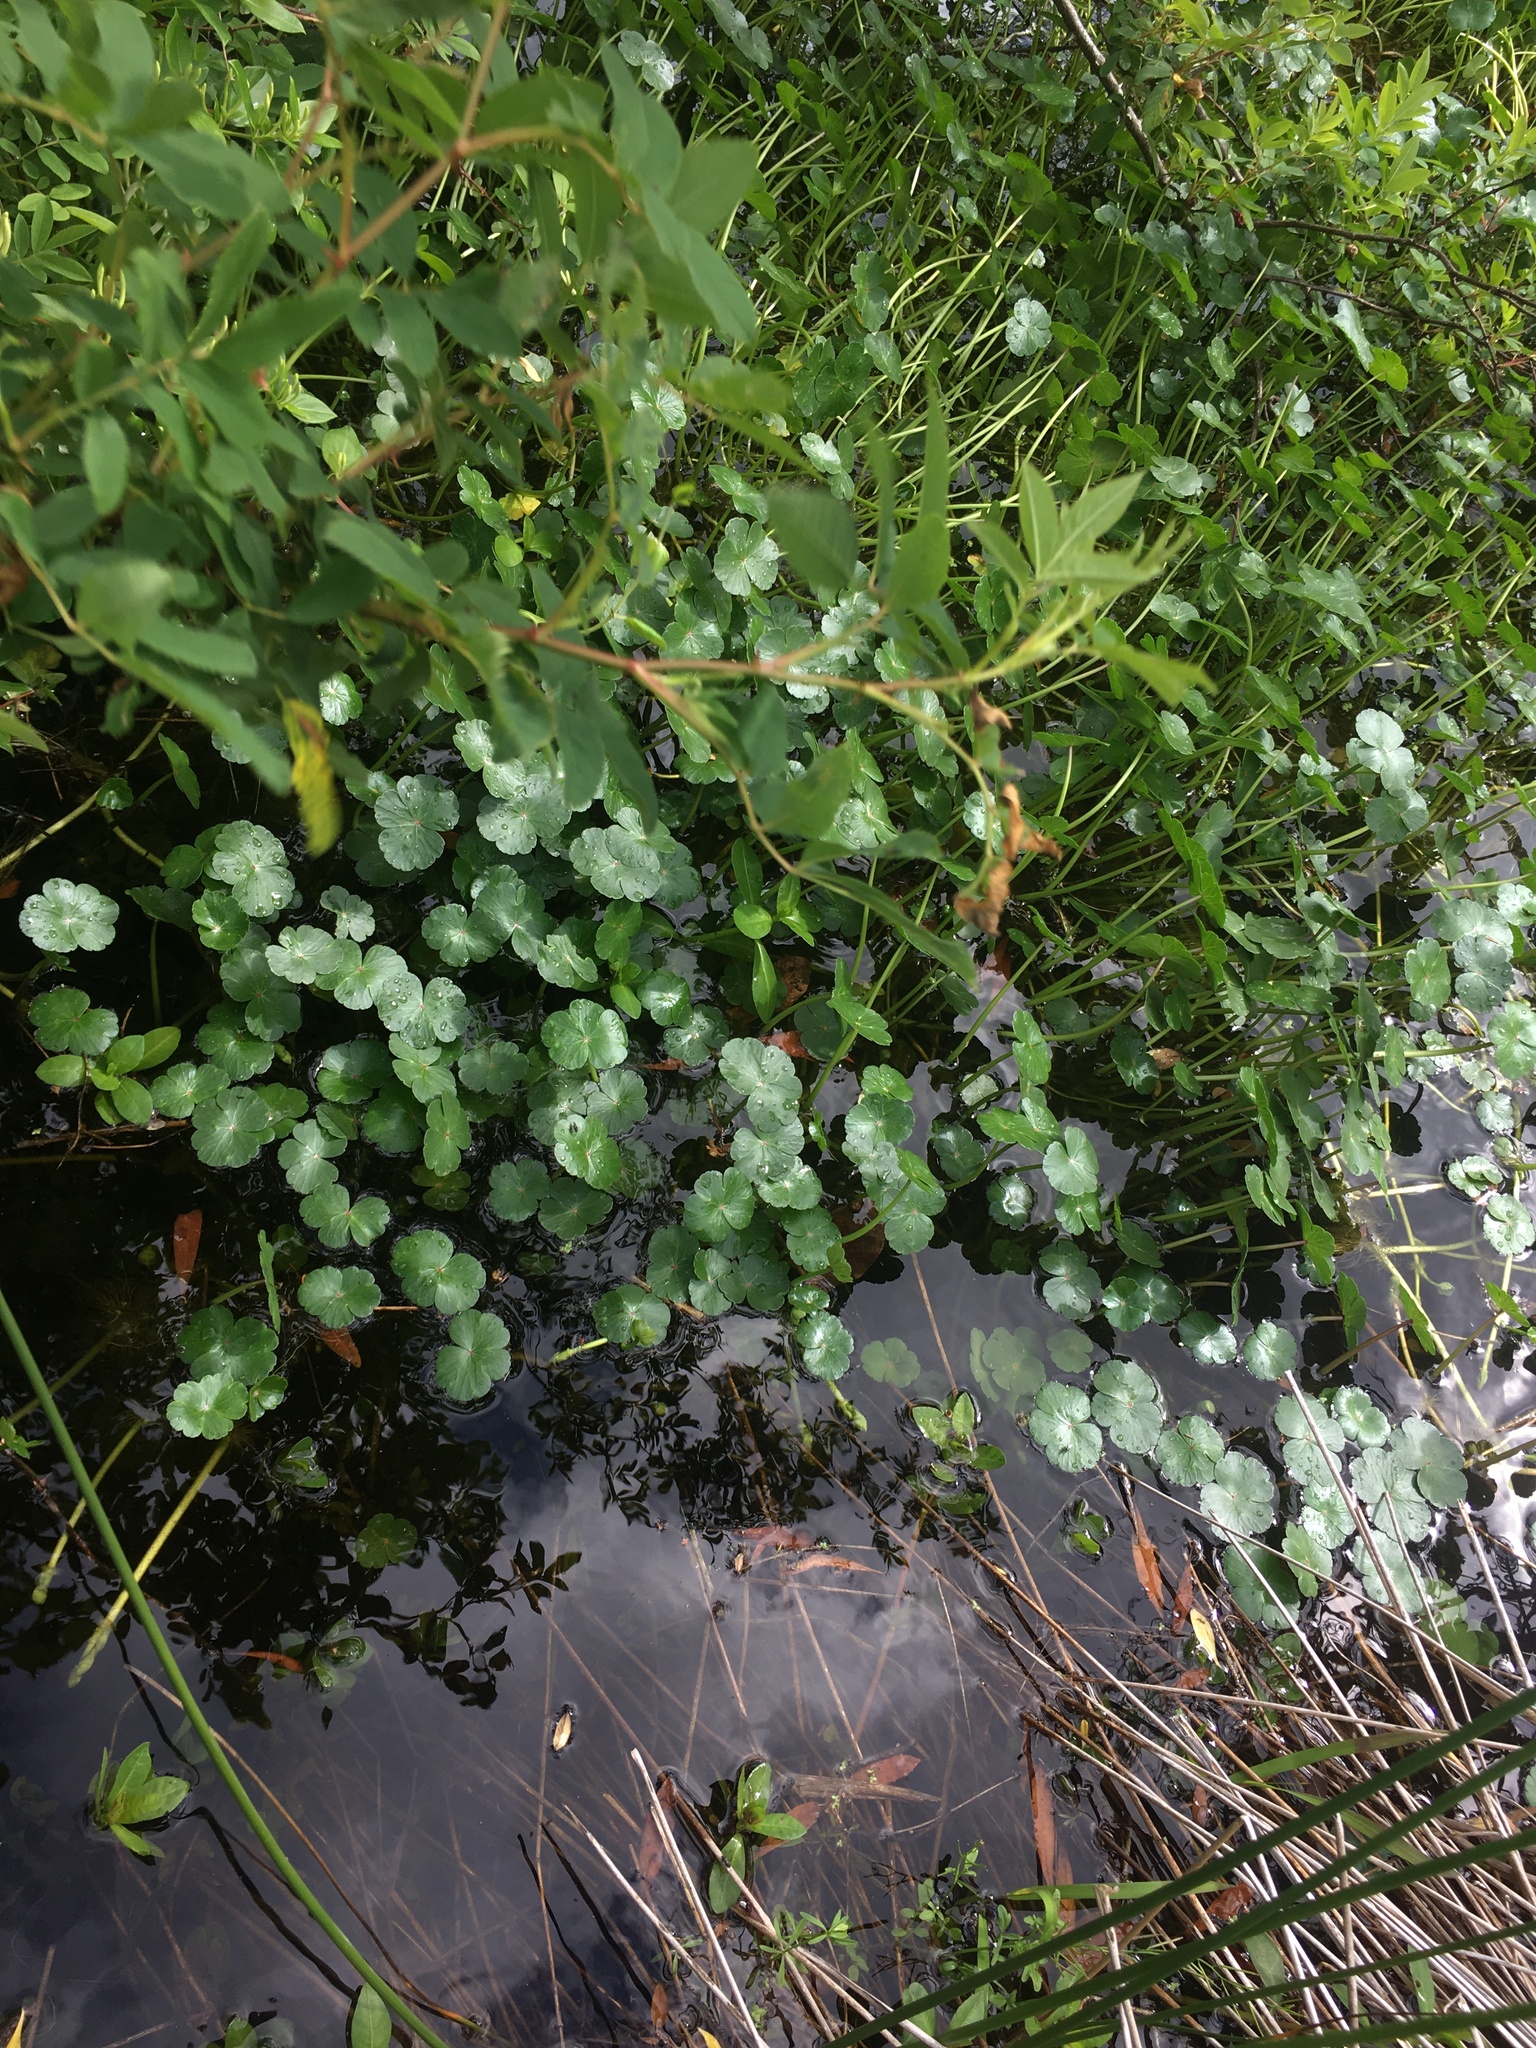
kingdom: Plantae
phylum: Tracheophyta
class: Magnoliopsida
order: Apiales
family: Araliaceae
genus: Hydrocotyle
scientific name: Hydrocotyle ranunculoides
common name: Floating pennywort
